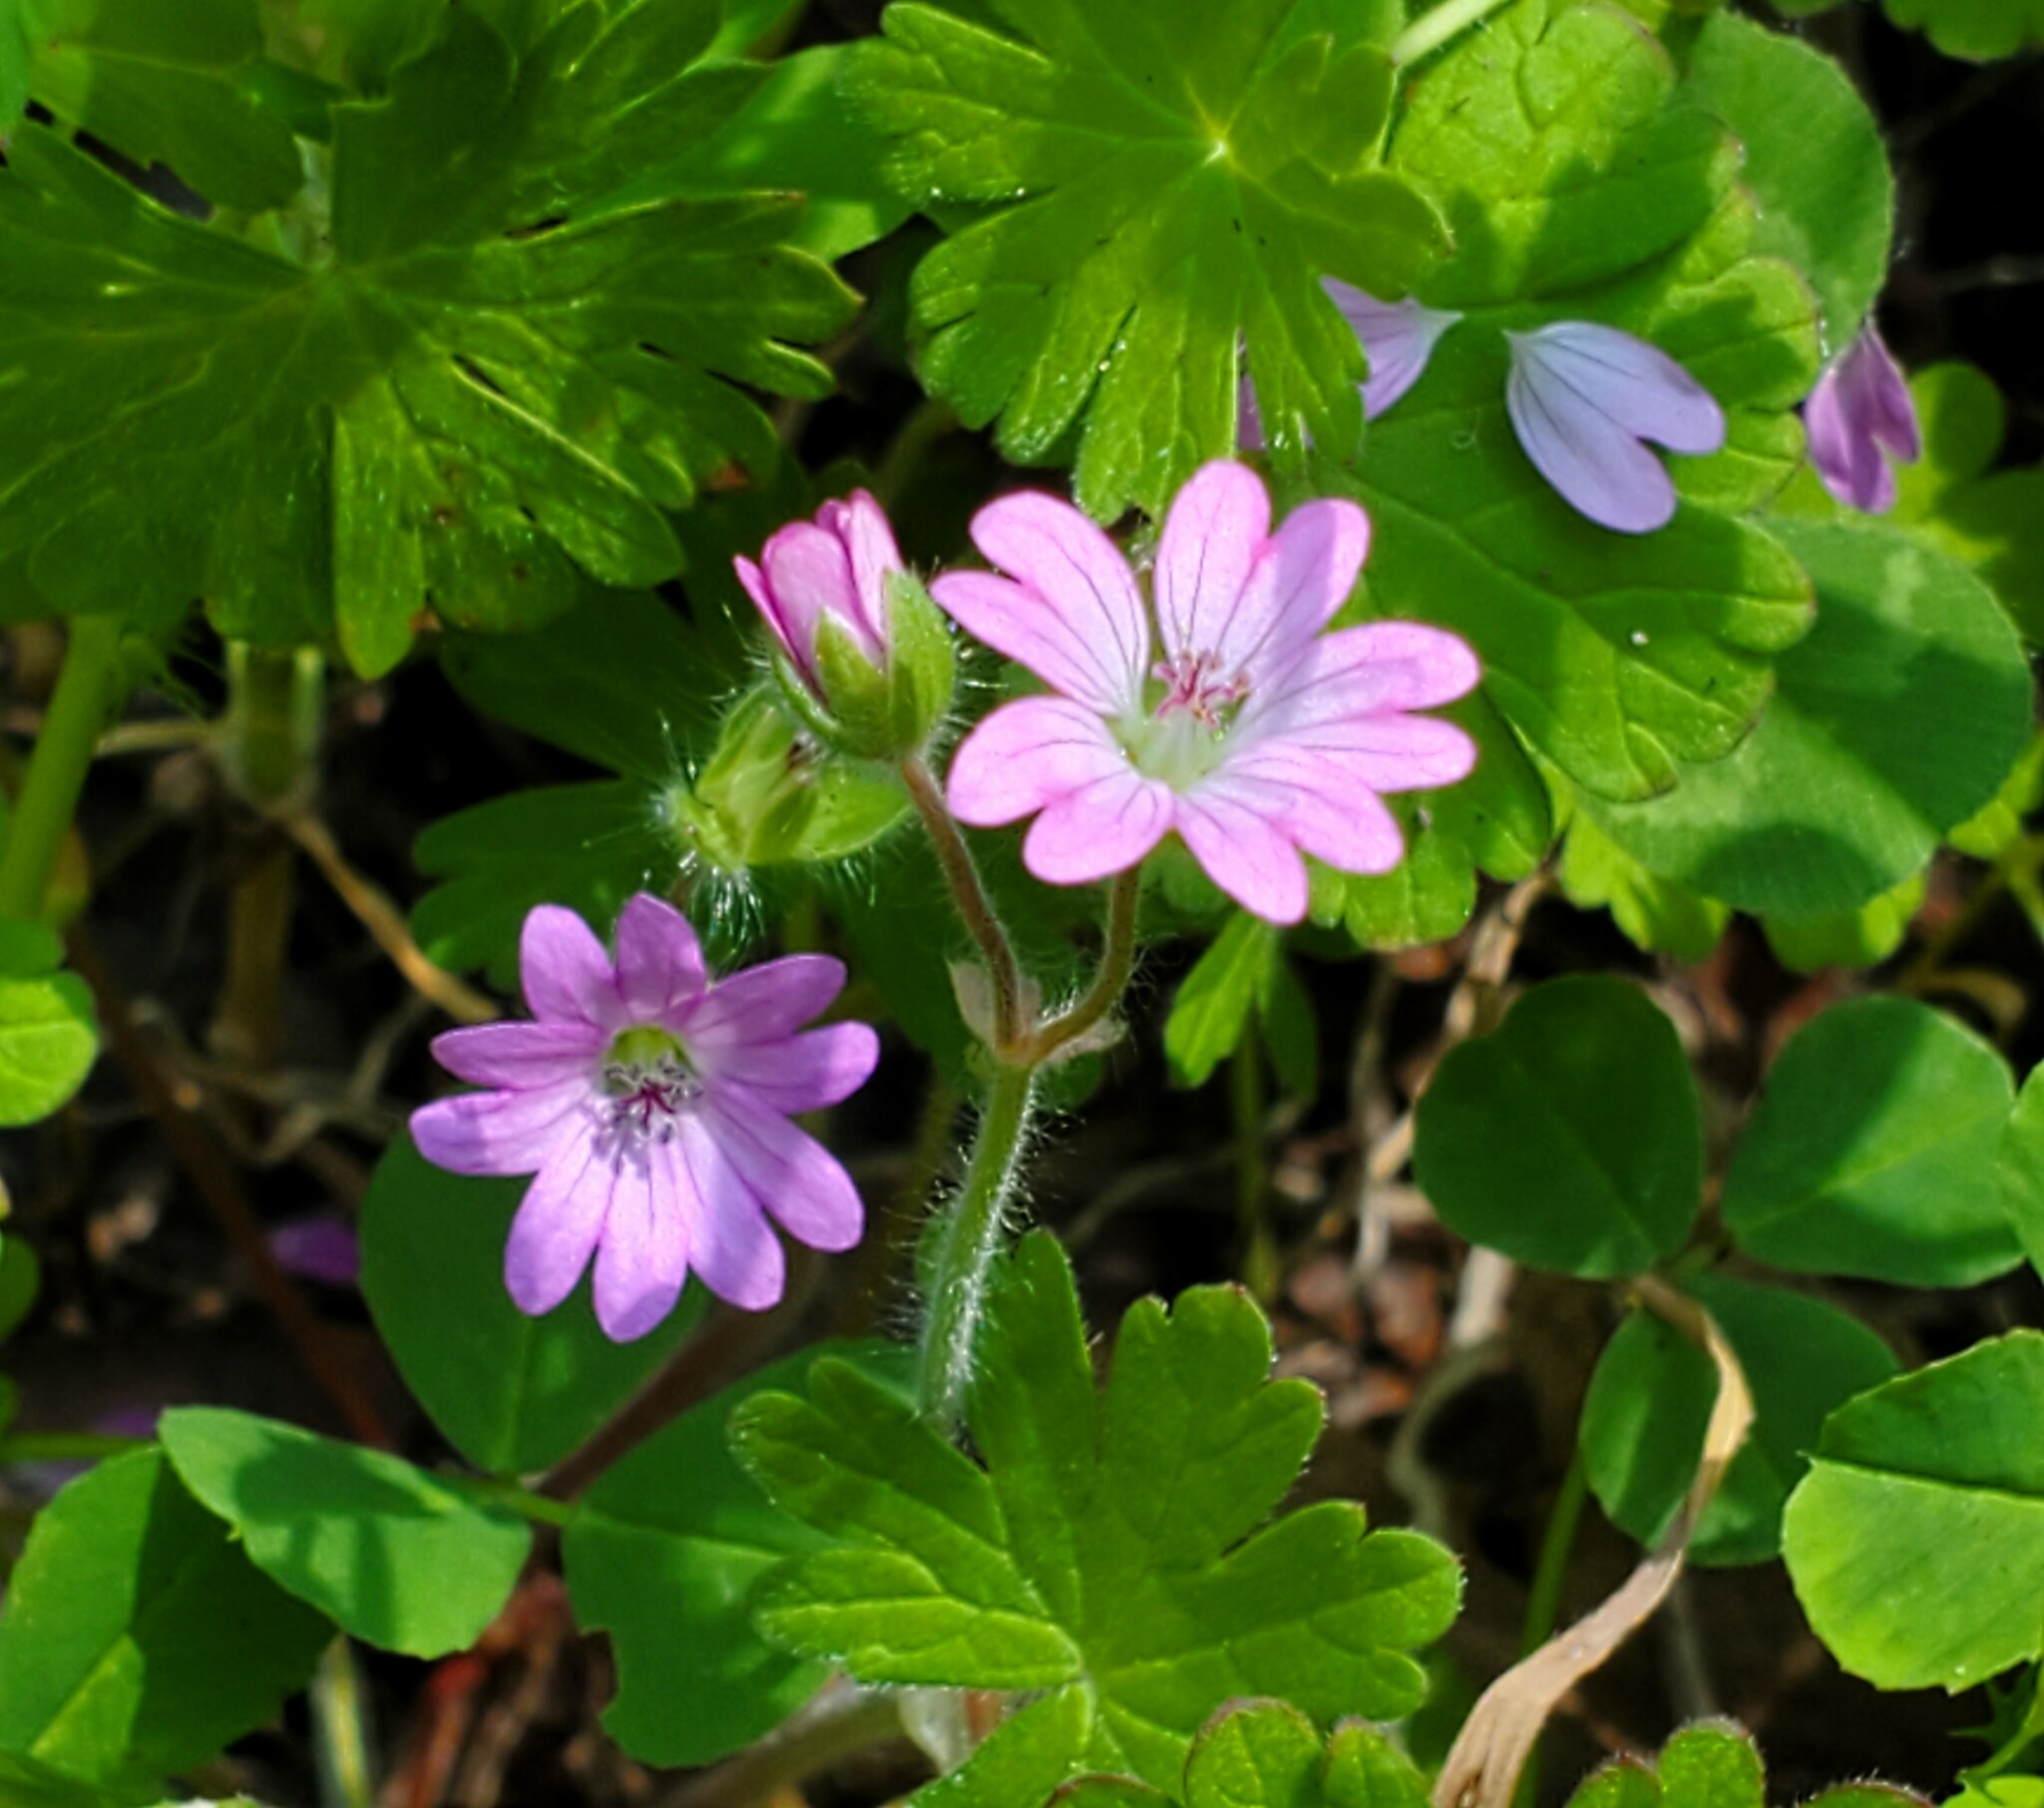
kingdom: Plantae
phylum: Tracheophyta
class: Magnoliopsida
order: Geraniales
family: Geraniaceae
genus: Geranium
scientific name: Geranium molle
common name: Dove's-foot crane's-bill
